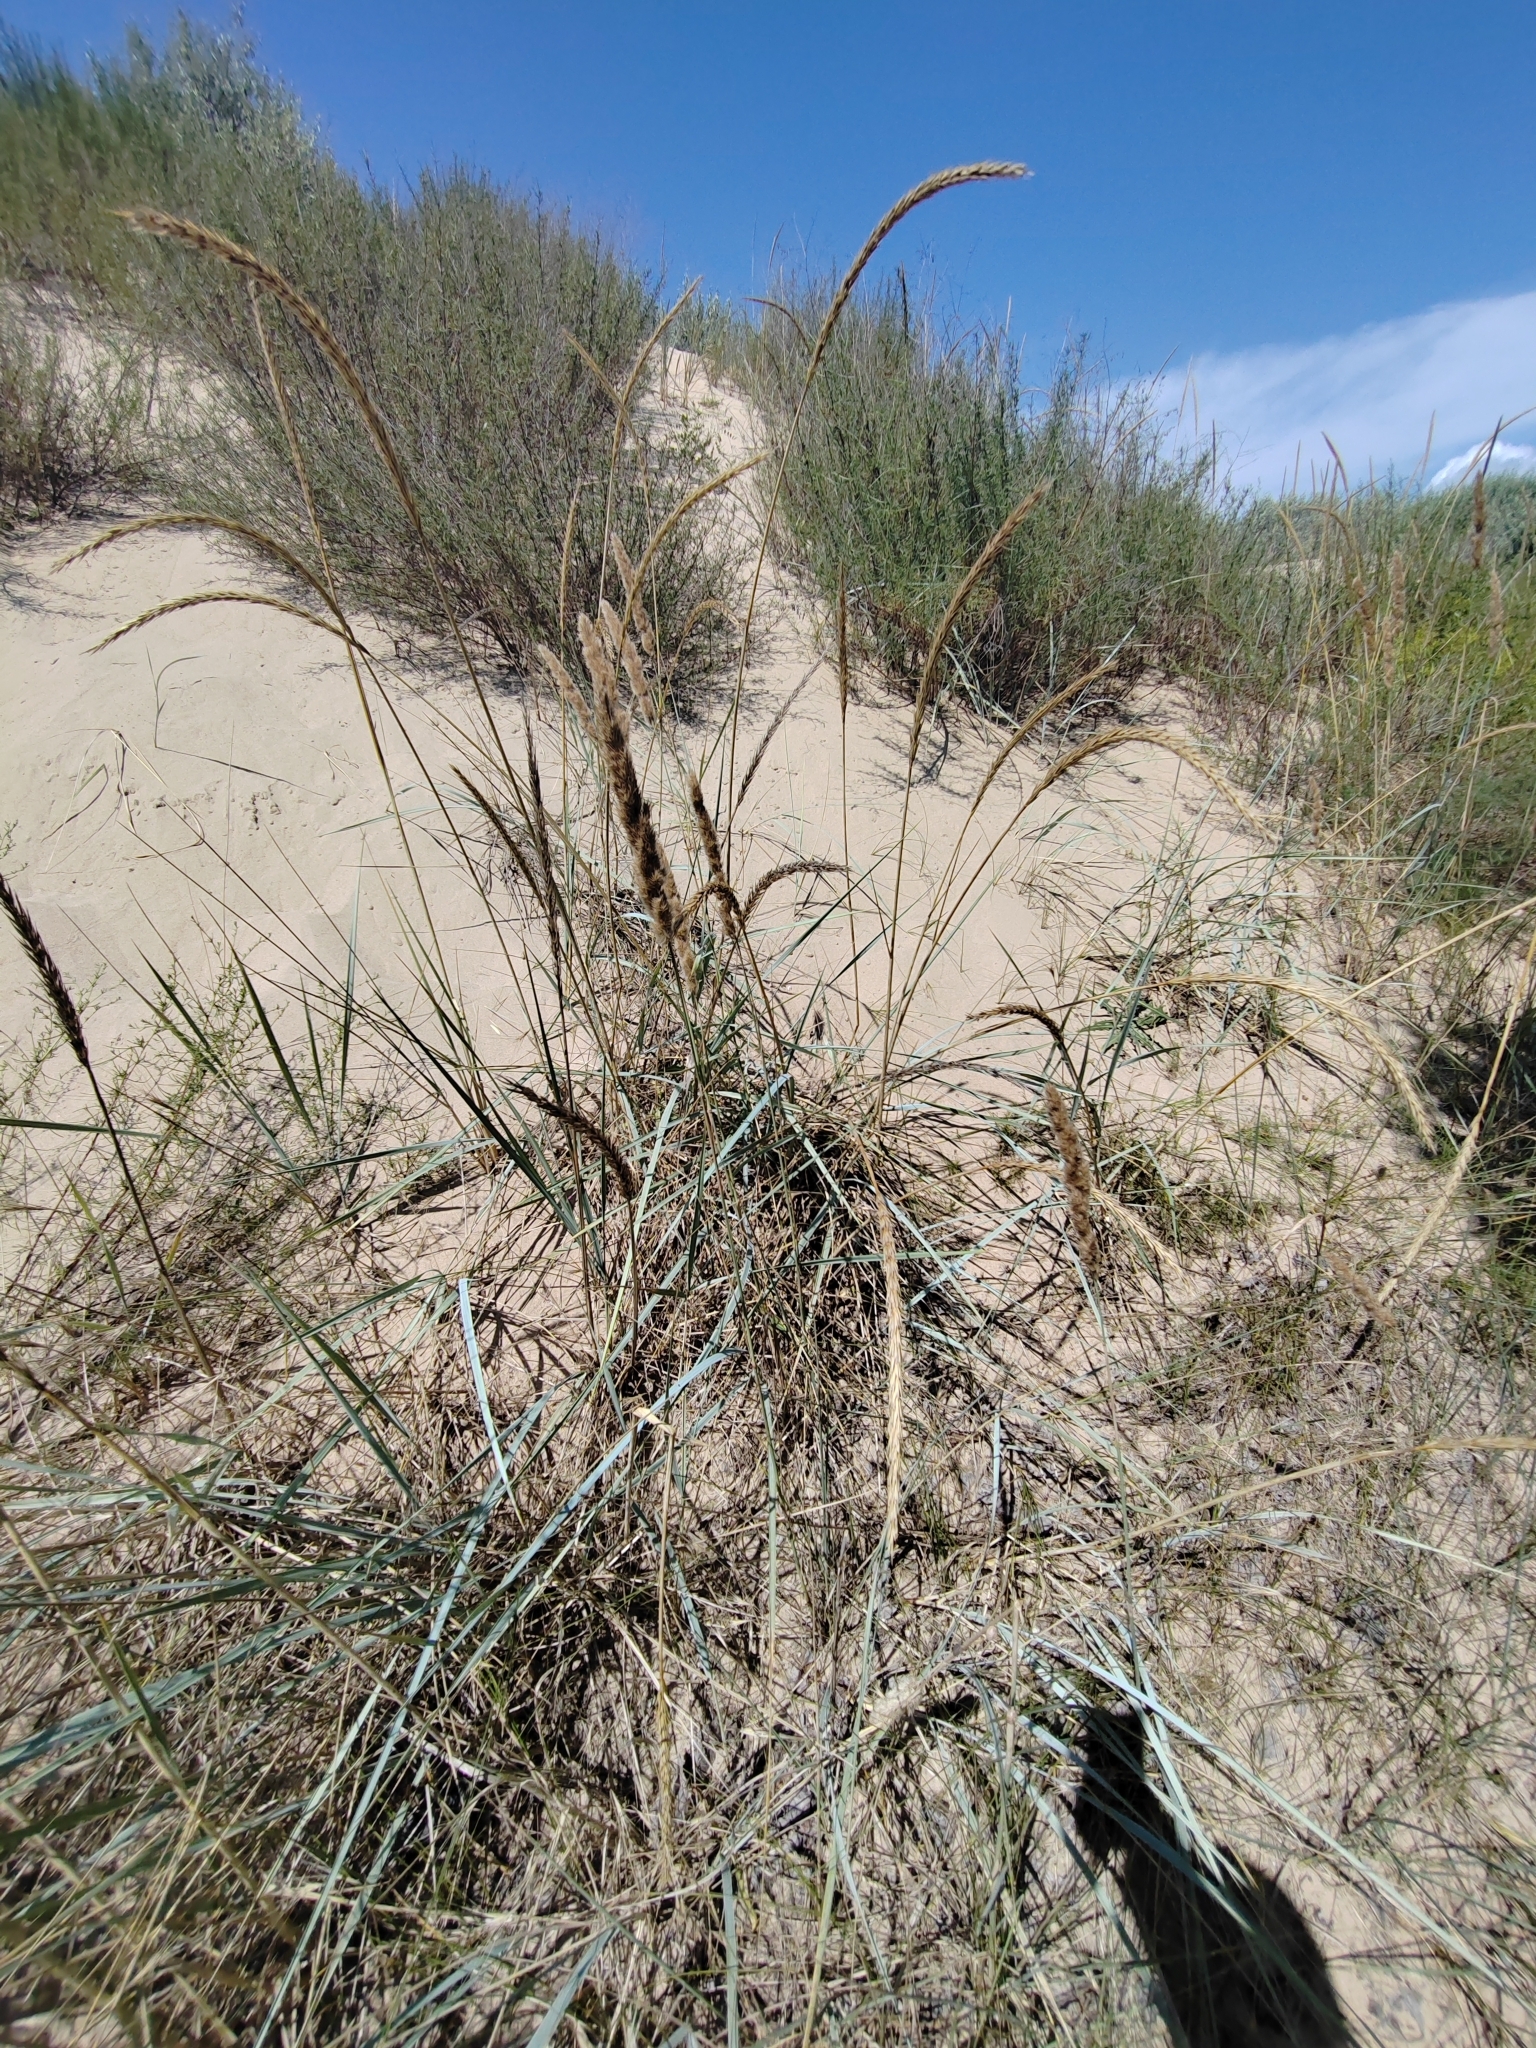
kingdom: Plantae
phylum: Tracheophyta
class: Liliopsida
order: Poales
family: Poaceae
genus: Leymus
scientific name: Leymus racemosus
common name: Mammoth wildrye
